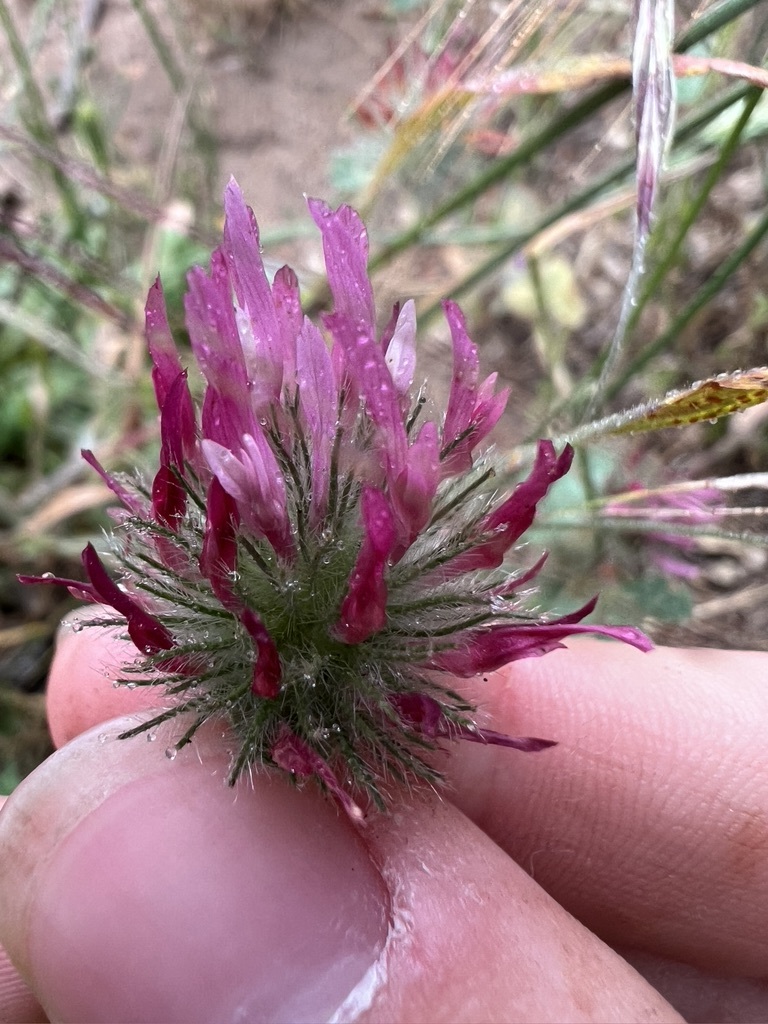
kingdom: Plantae
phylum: Tracheophyta
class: Magnoliopsida
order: Fabales
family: Fabaceae
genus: Trifolium
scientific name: Trifolium hirtum
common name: Rose clover
